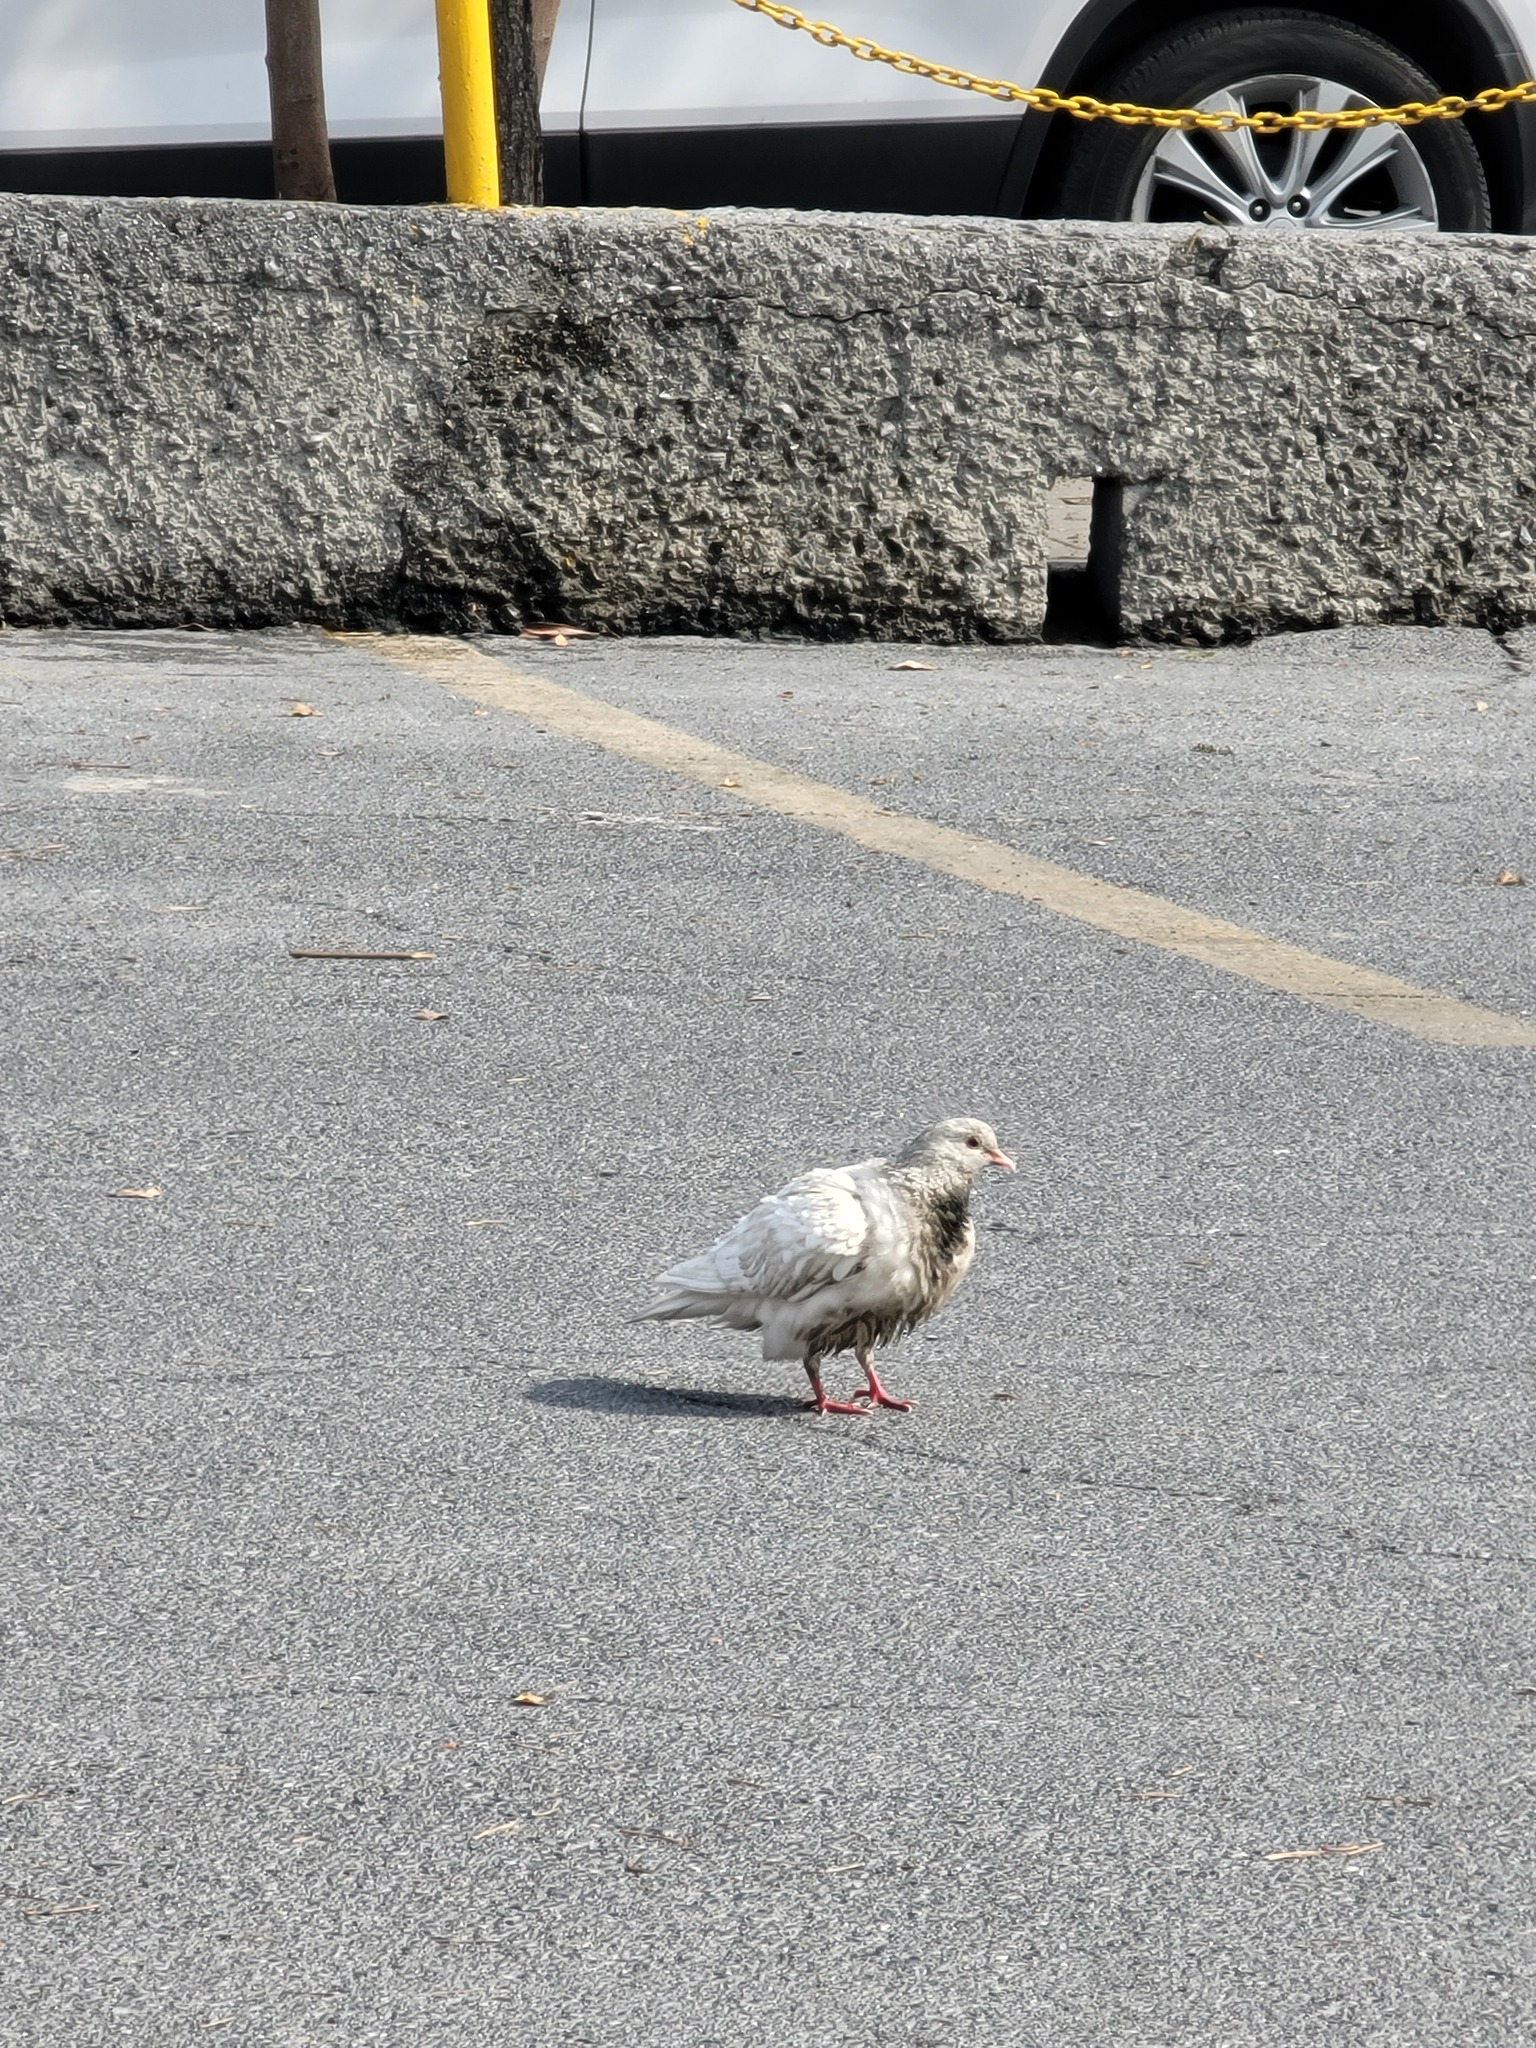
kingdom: Animalia
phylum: Chordata
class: Aves
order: Columbiformes
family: Columbidae
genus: Columba
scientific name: Columba livia
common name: Rock pigeon
